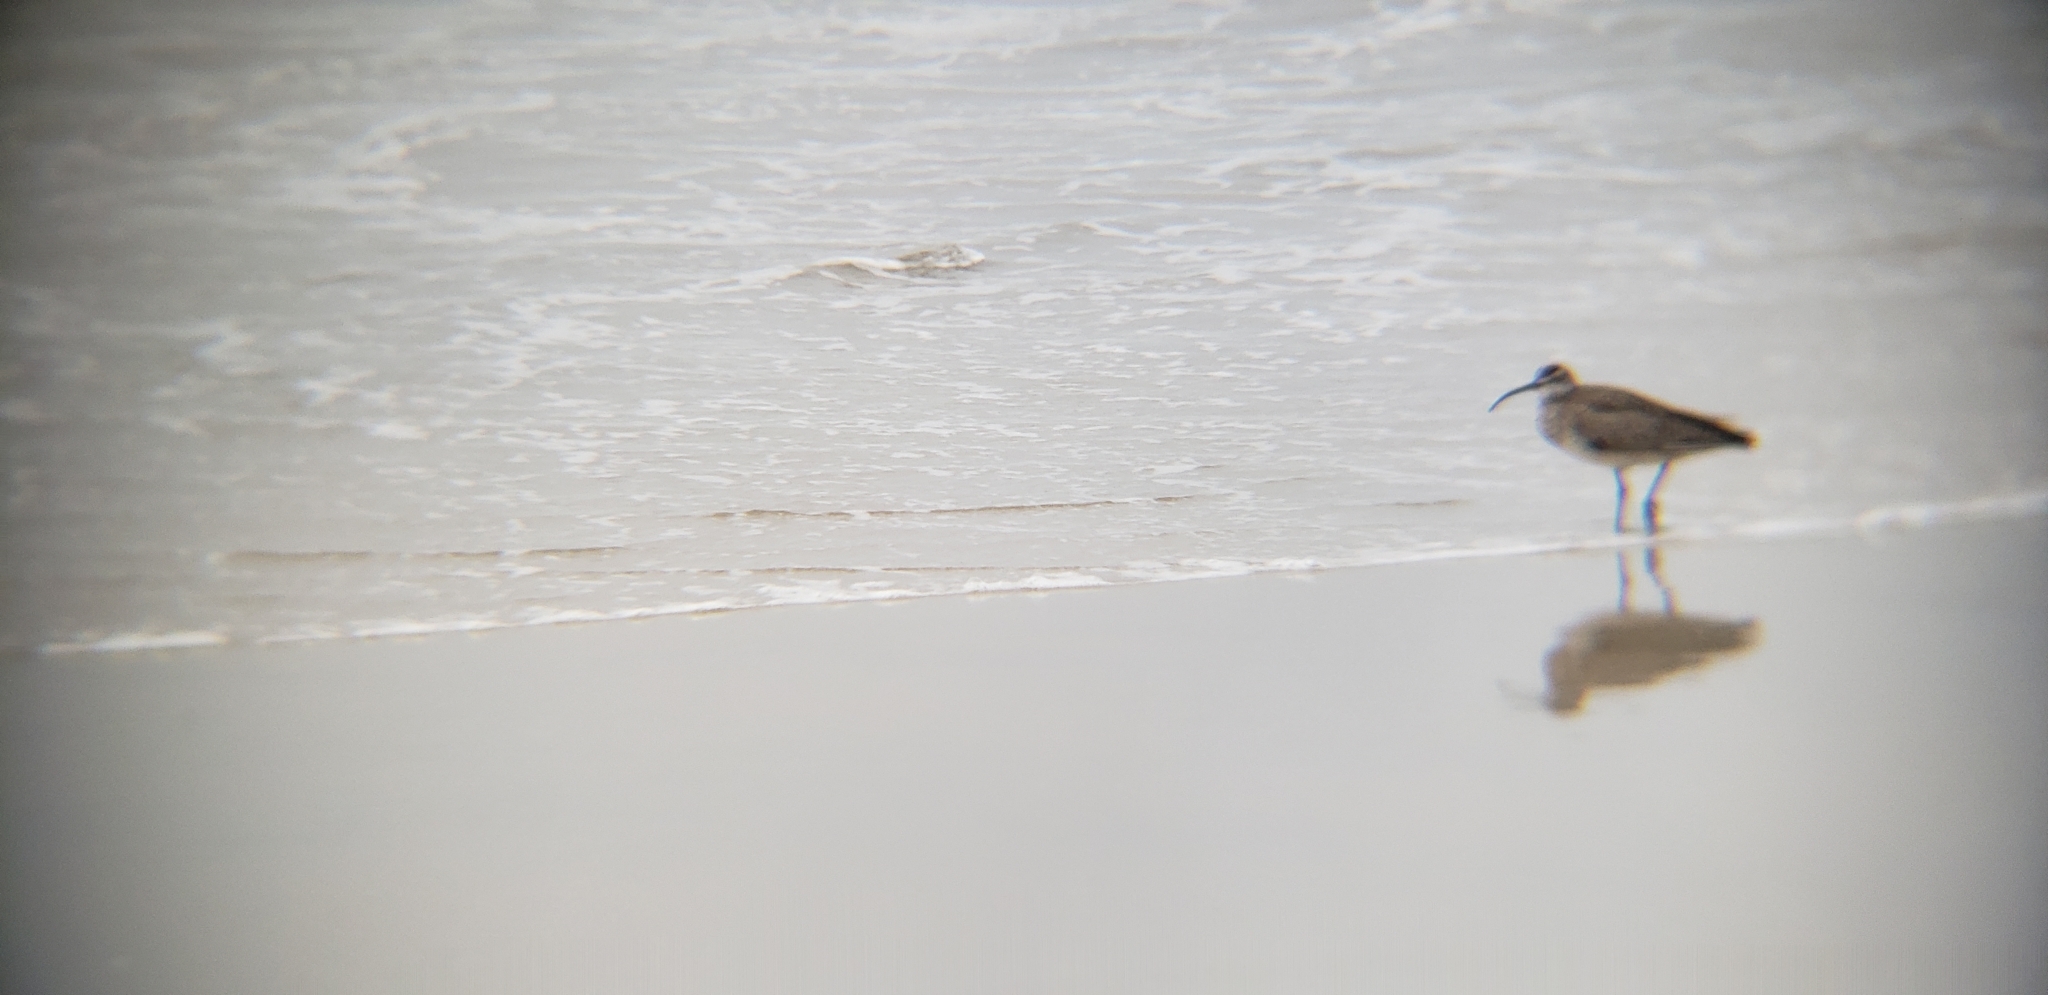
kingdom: Animalia
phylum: Chordata
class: Aves
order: Charadriiformes
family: Scolopacidae
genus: Numenius
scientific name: Numenius phaeopus
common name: Whimbrel
